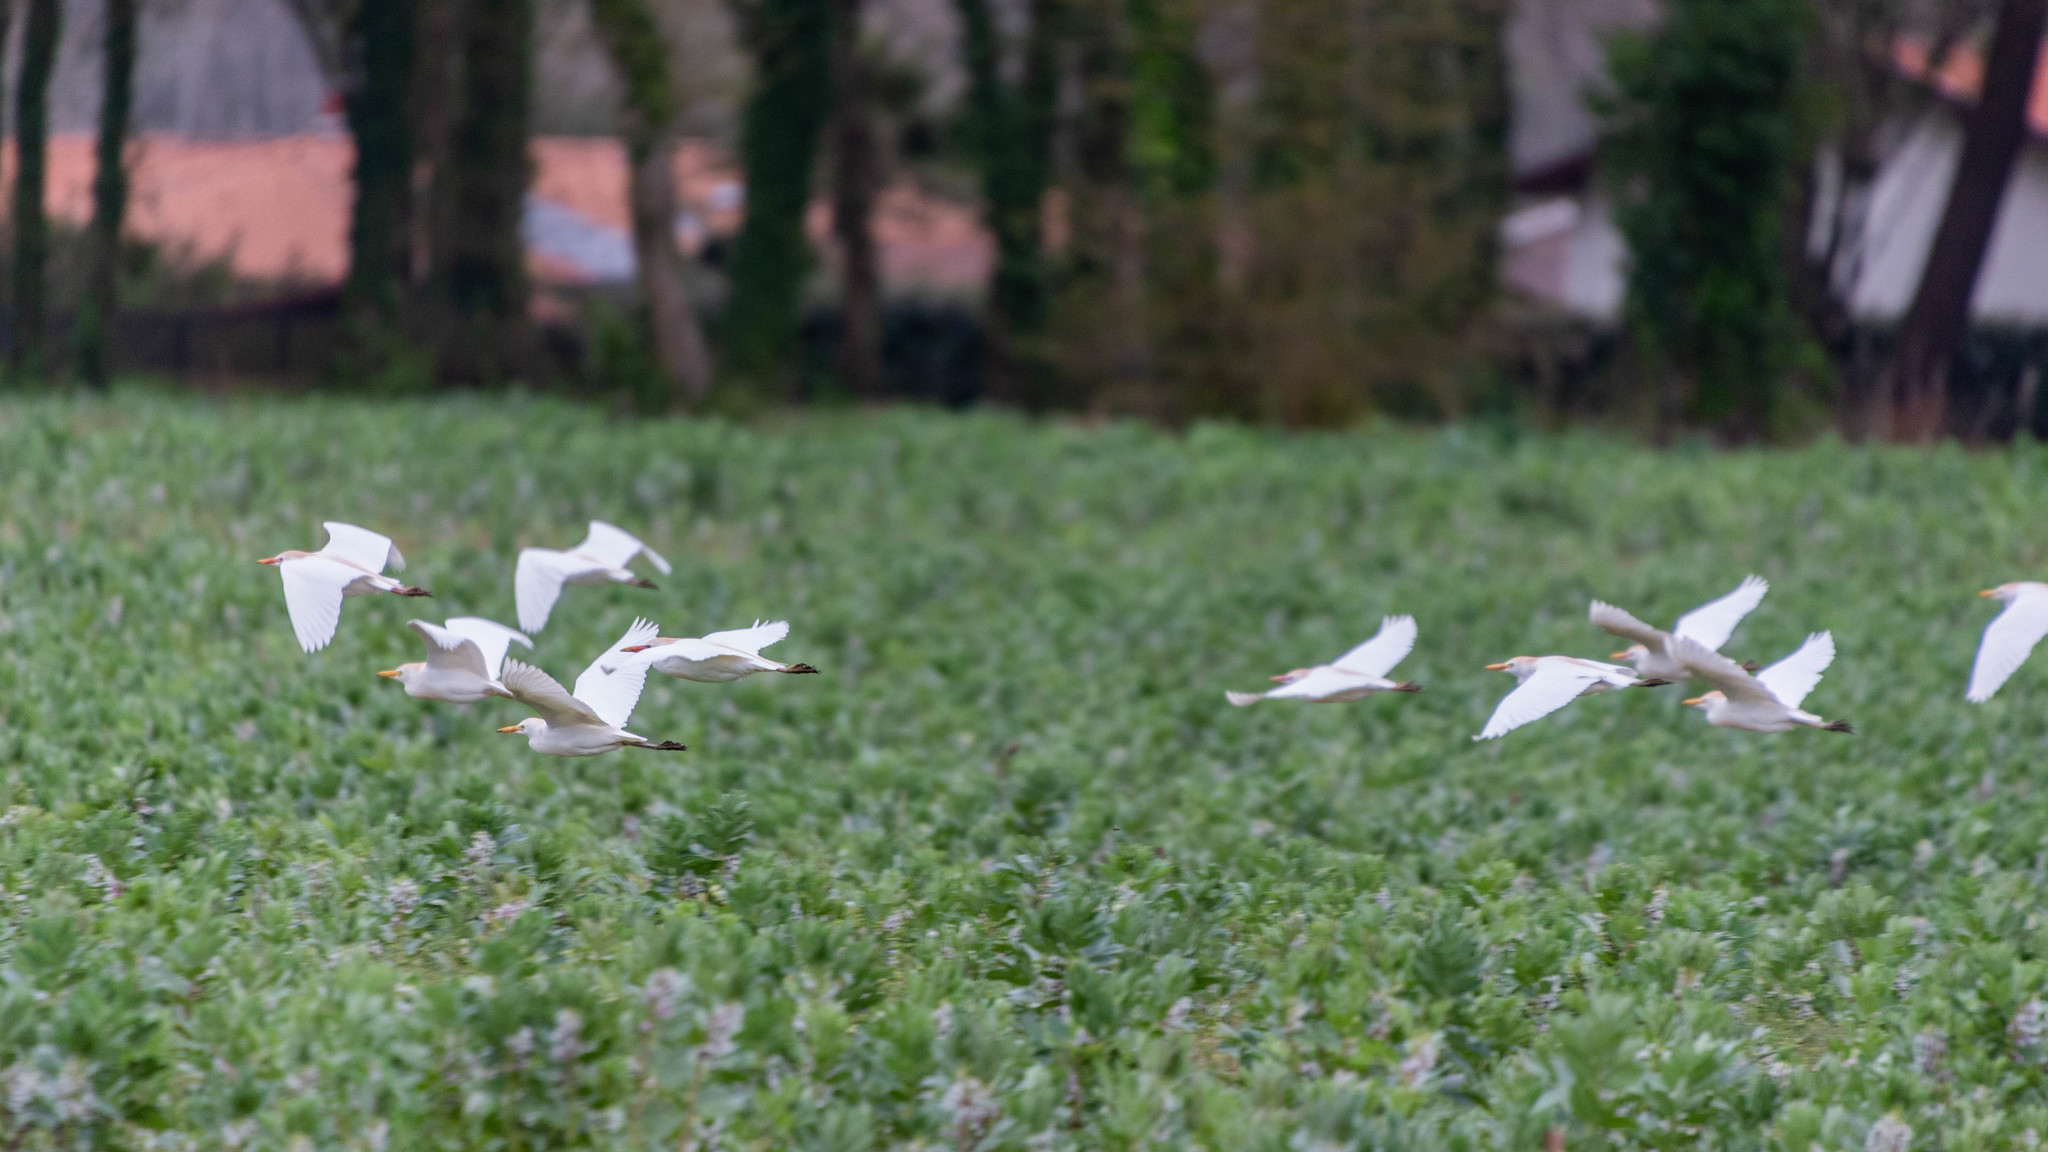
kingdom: Animalia
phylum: Chordata
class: Aves
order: Pelecaniformes
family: Ardeidae
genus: Bubulcus
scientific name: Bubulcus ibis
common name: Cattle egret
